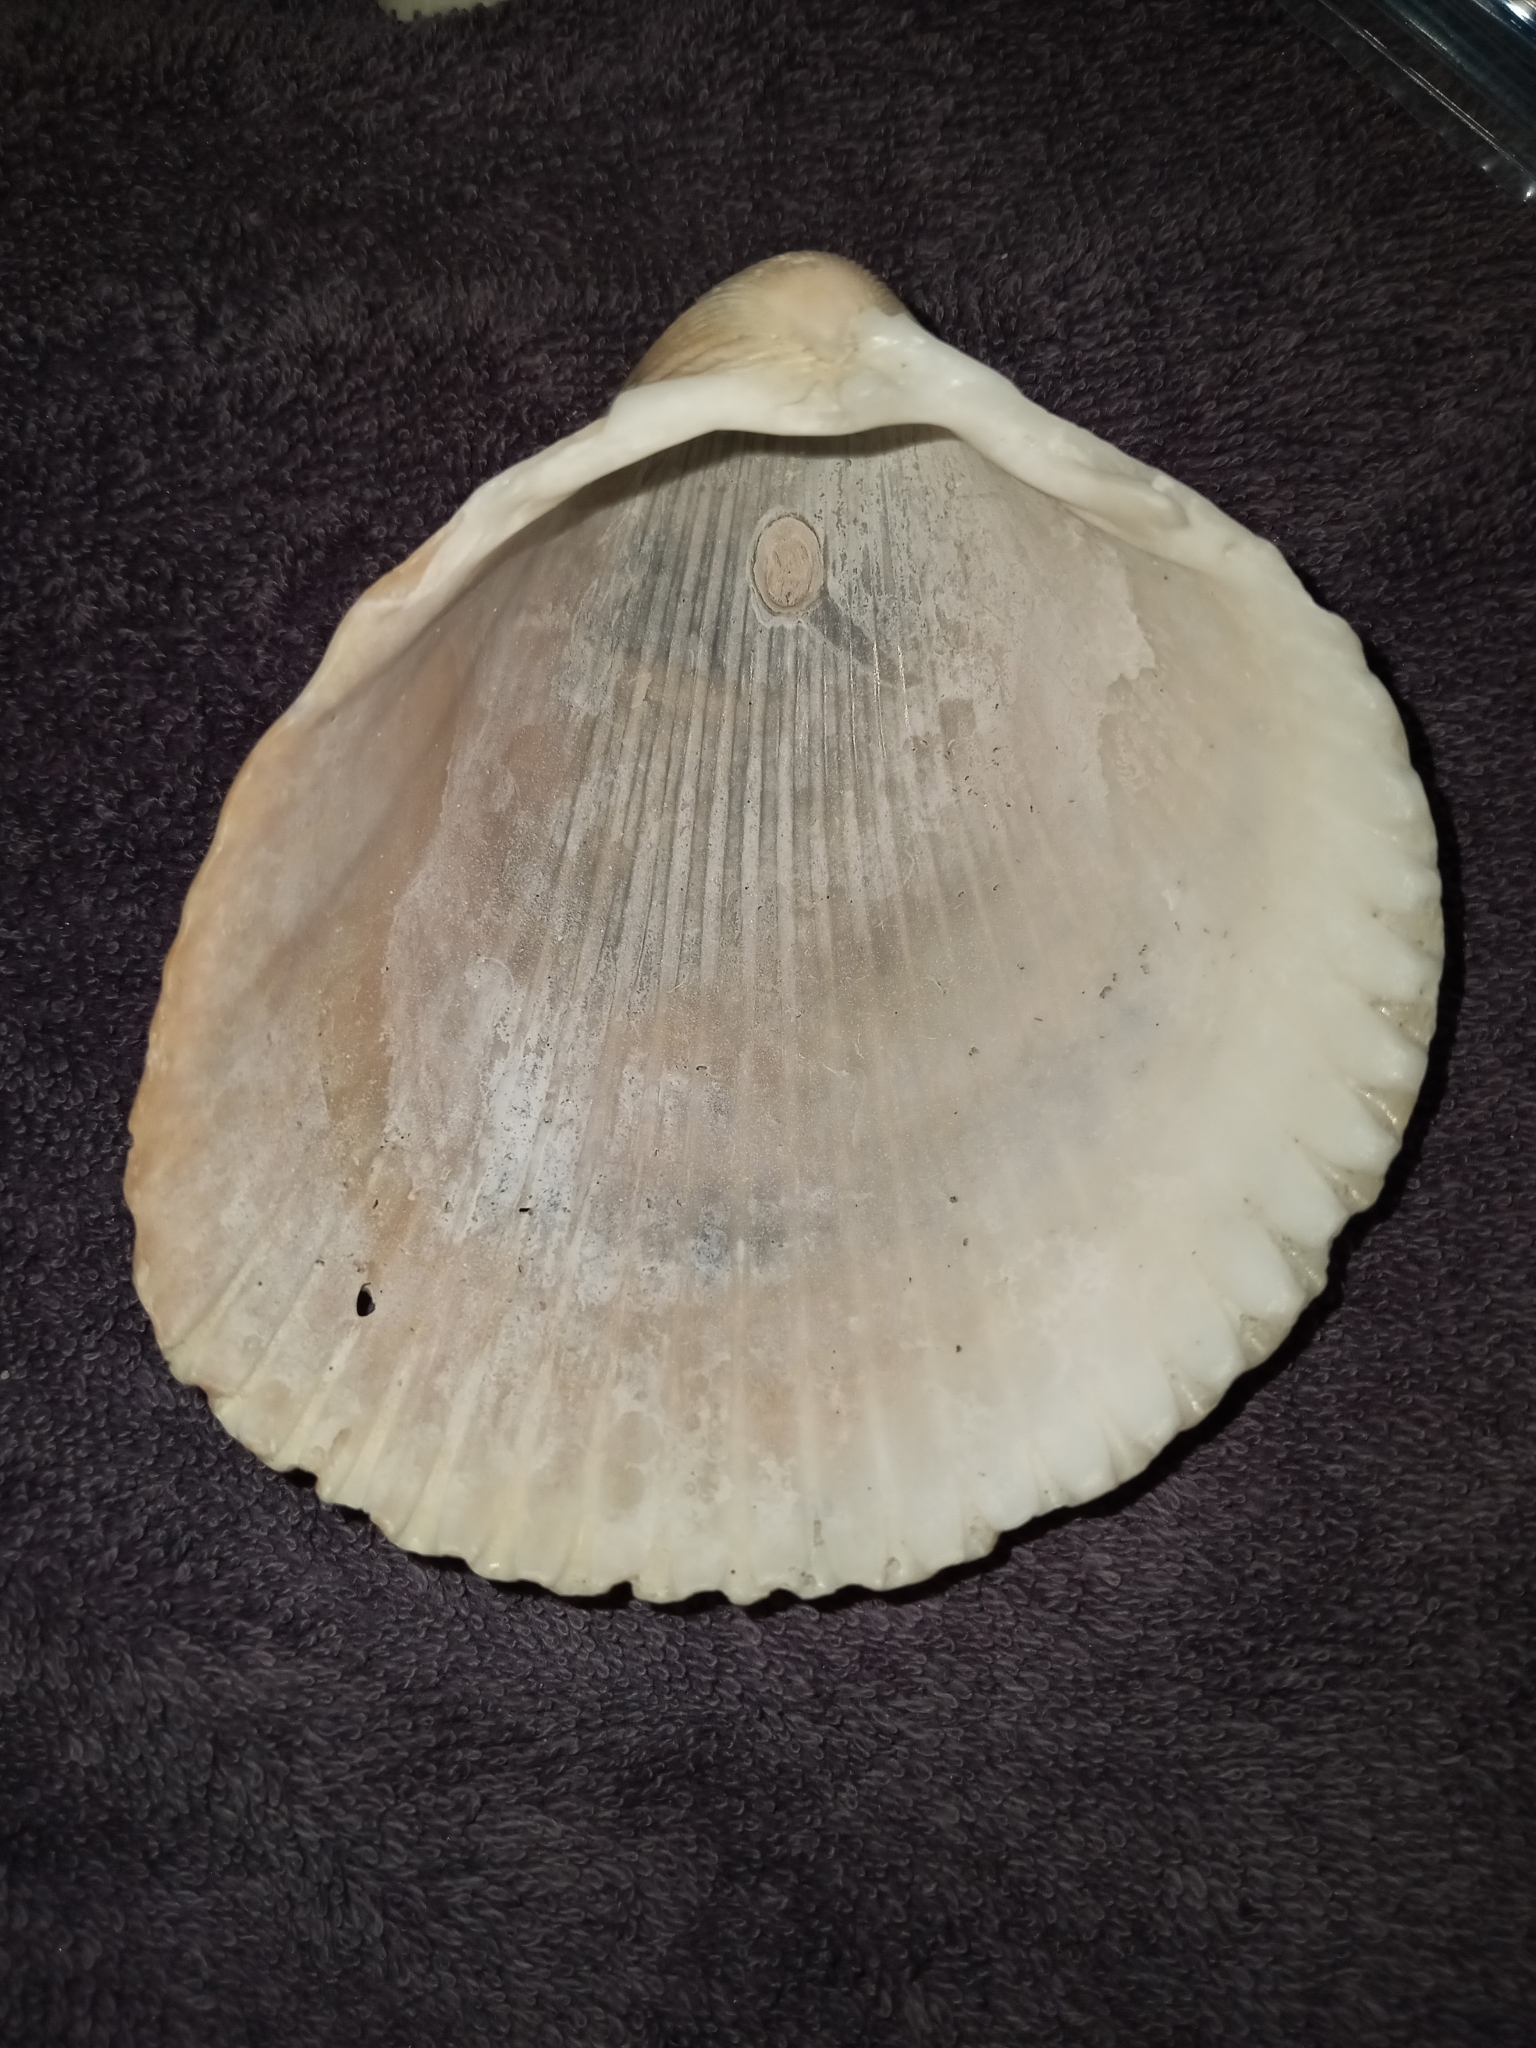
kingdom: Animalia
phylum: Mollusca
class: Bivalvia
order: Cardiida
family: Cardiidae
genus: Dinocardium
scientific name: Dinocardium robustum
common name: Atlantic giant cockle
